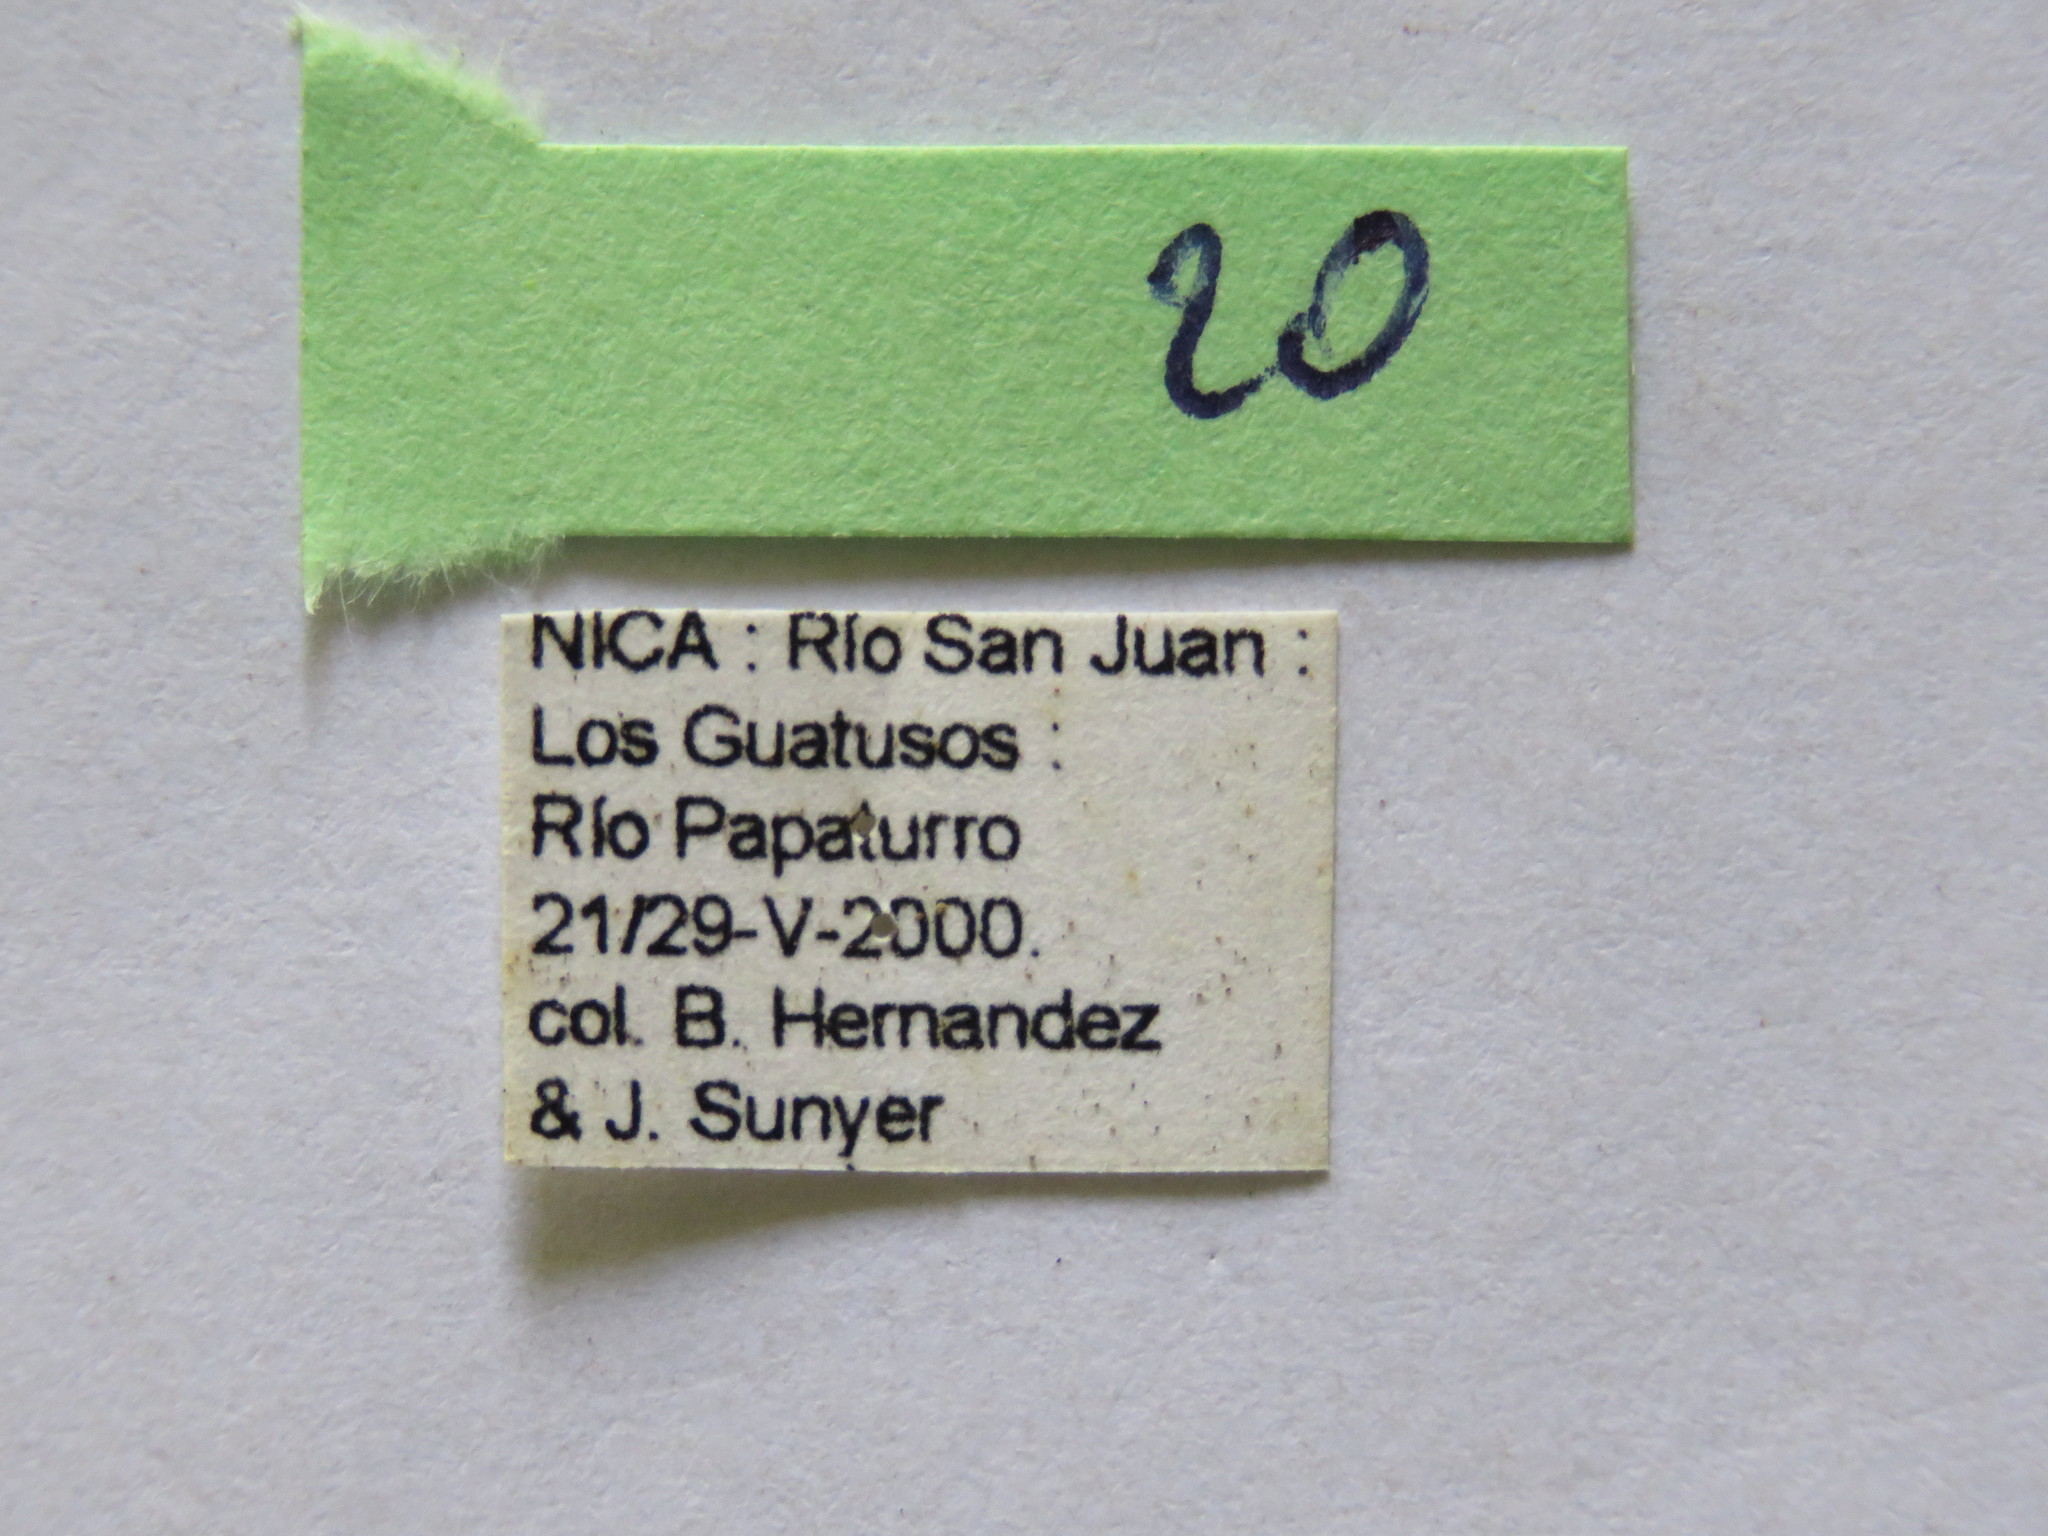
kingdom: Animalia
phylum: Arthropoda
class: Insecta
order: Hemiptera
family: Coreidae
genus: Leptoglossus
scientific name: Leptoglossus concolor
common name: Leaf-footed bug
